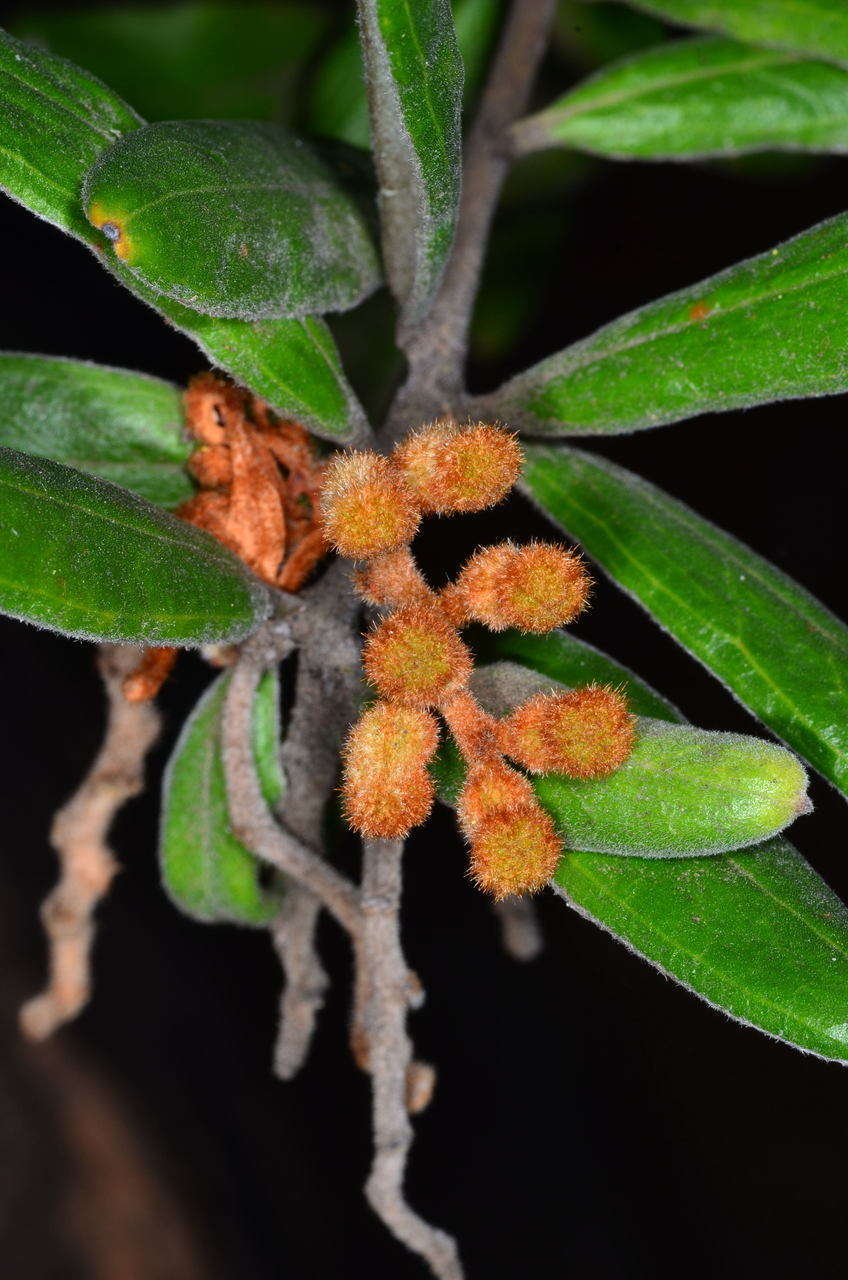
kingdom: Plantae
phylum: Tracheophyta
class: Magnoliopsida
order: Proteales
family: Proteaceae
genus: Grevillea
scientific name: Grevillea floribunda
